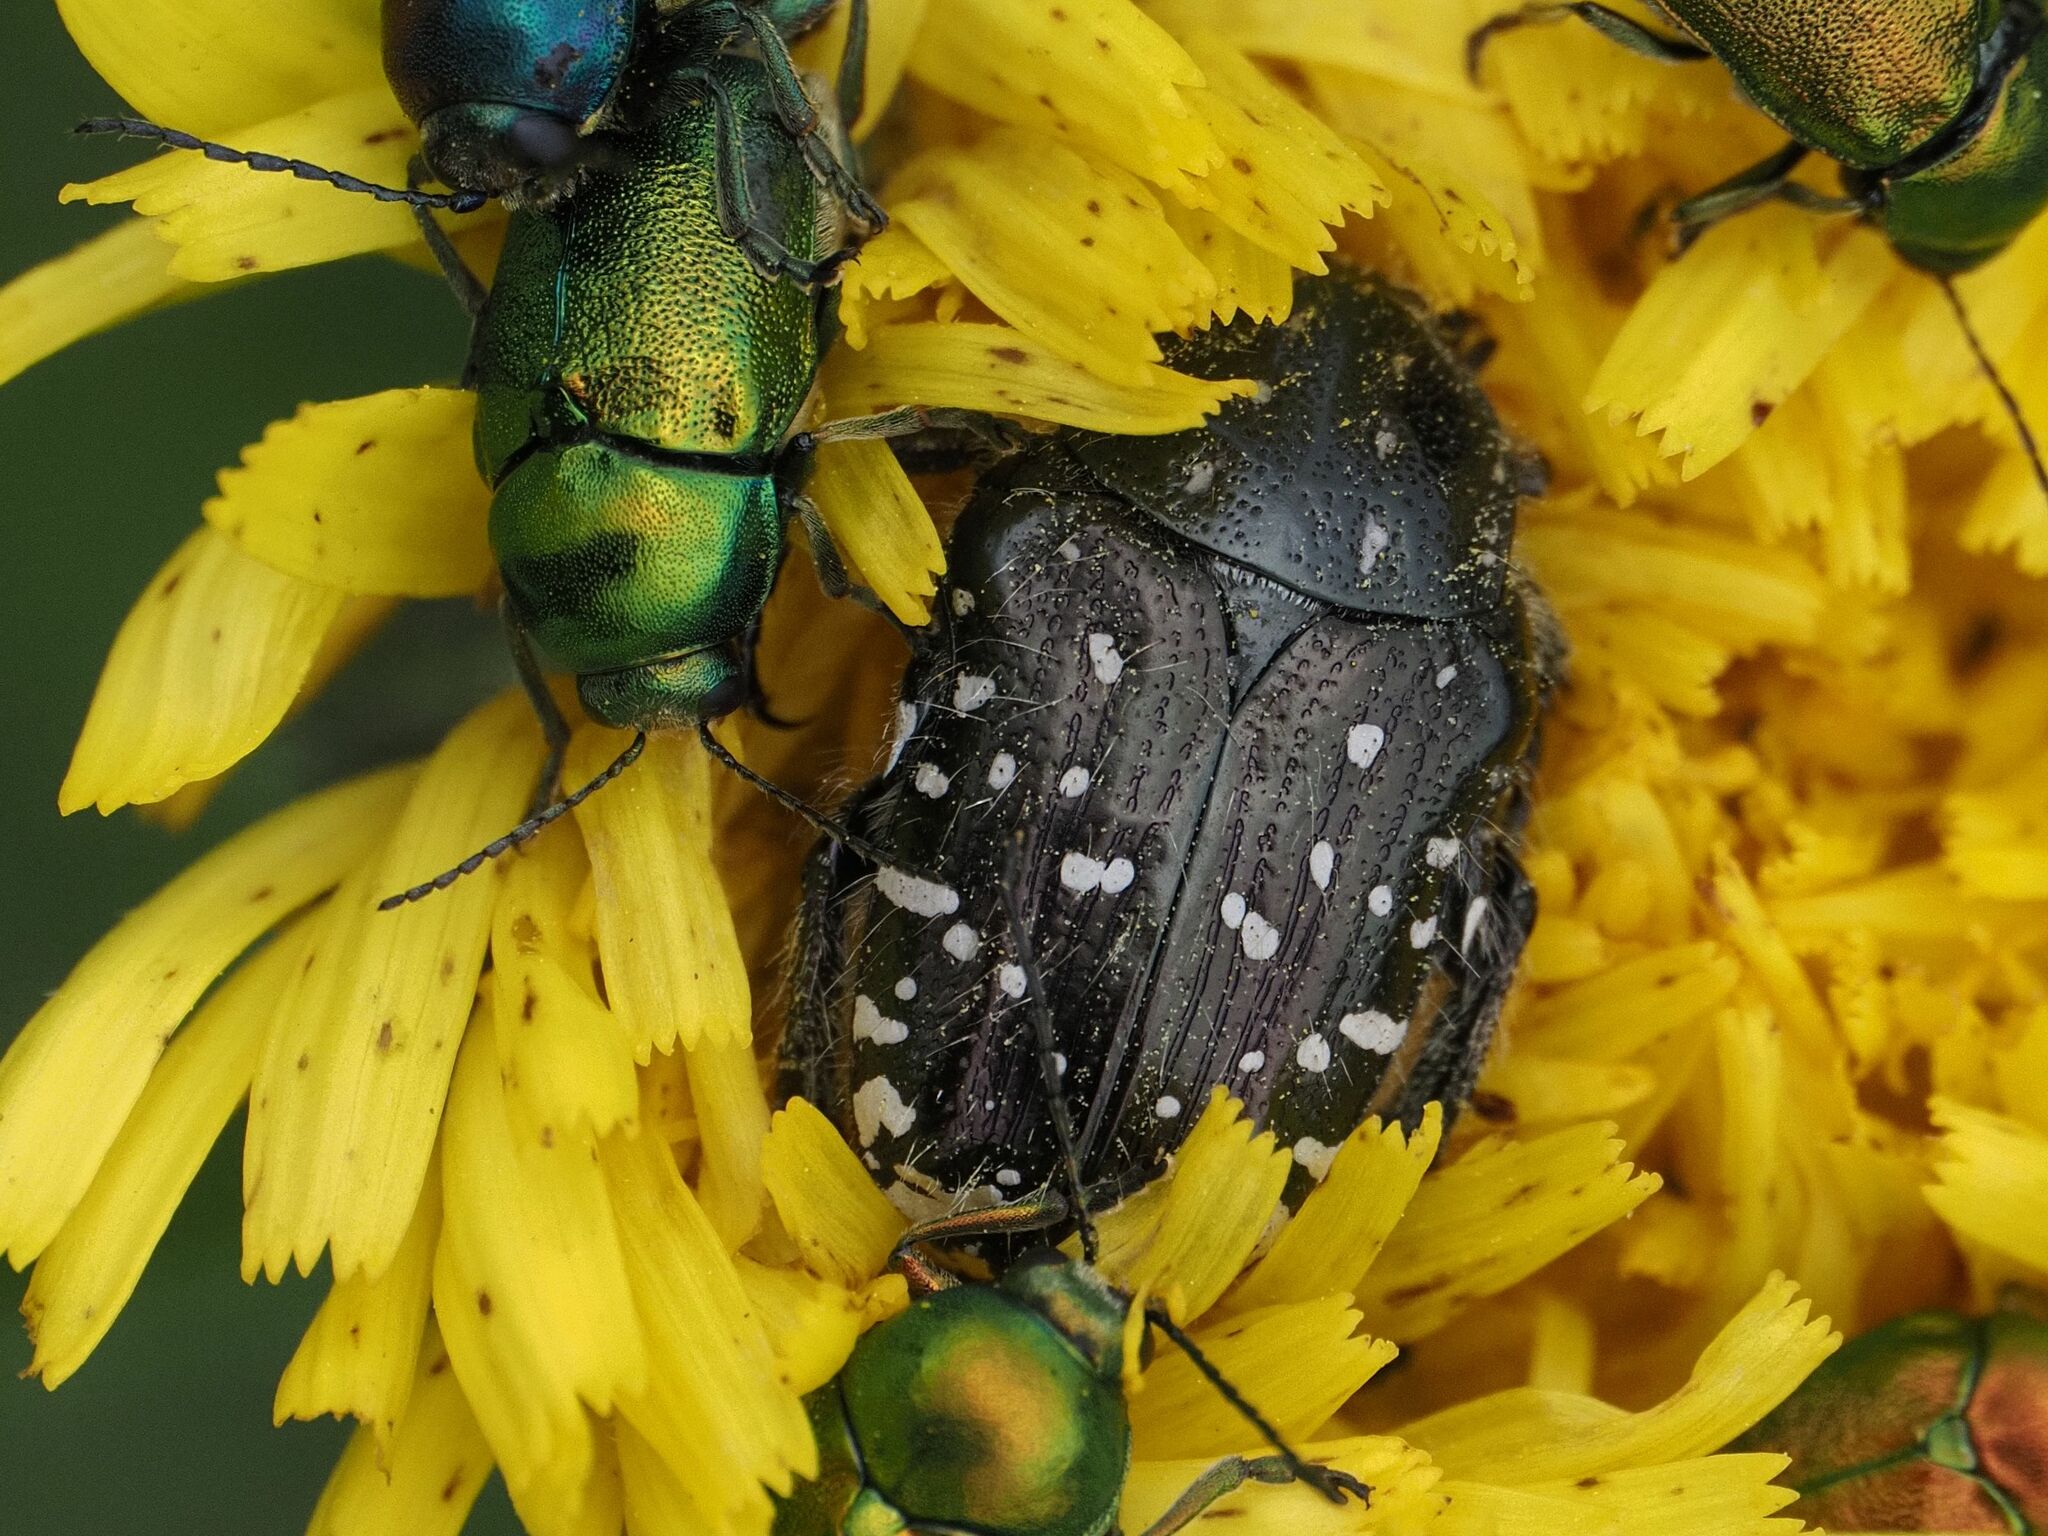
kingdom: Animalia
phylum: Arthropoda
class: Insecta
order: Coleoptera
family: Scarabaeidae
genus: Oxythyrea
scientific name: Oxythyrea funesta
